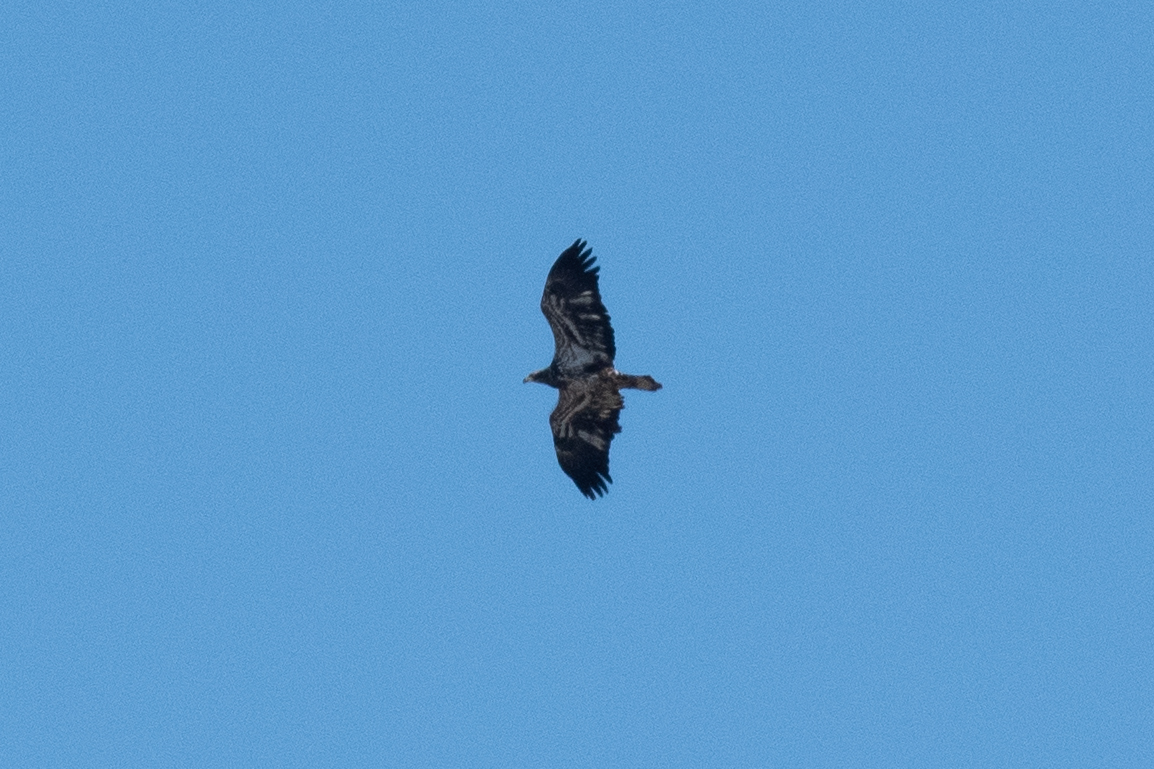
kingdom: Animalia
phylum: Chordata
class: Aves
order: Accipitriformes
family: Accipitridae
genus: Haliaeetus
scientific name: Haliaeetus leucocephalus
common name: Bald eagle
